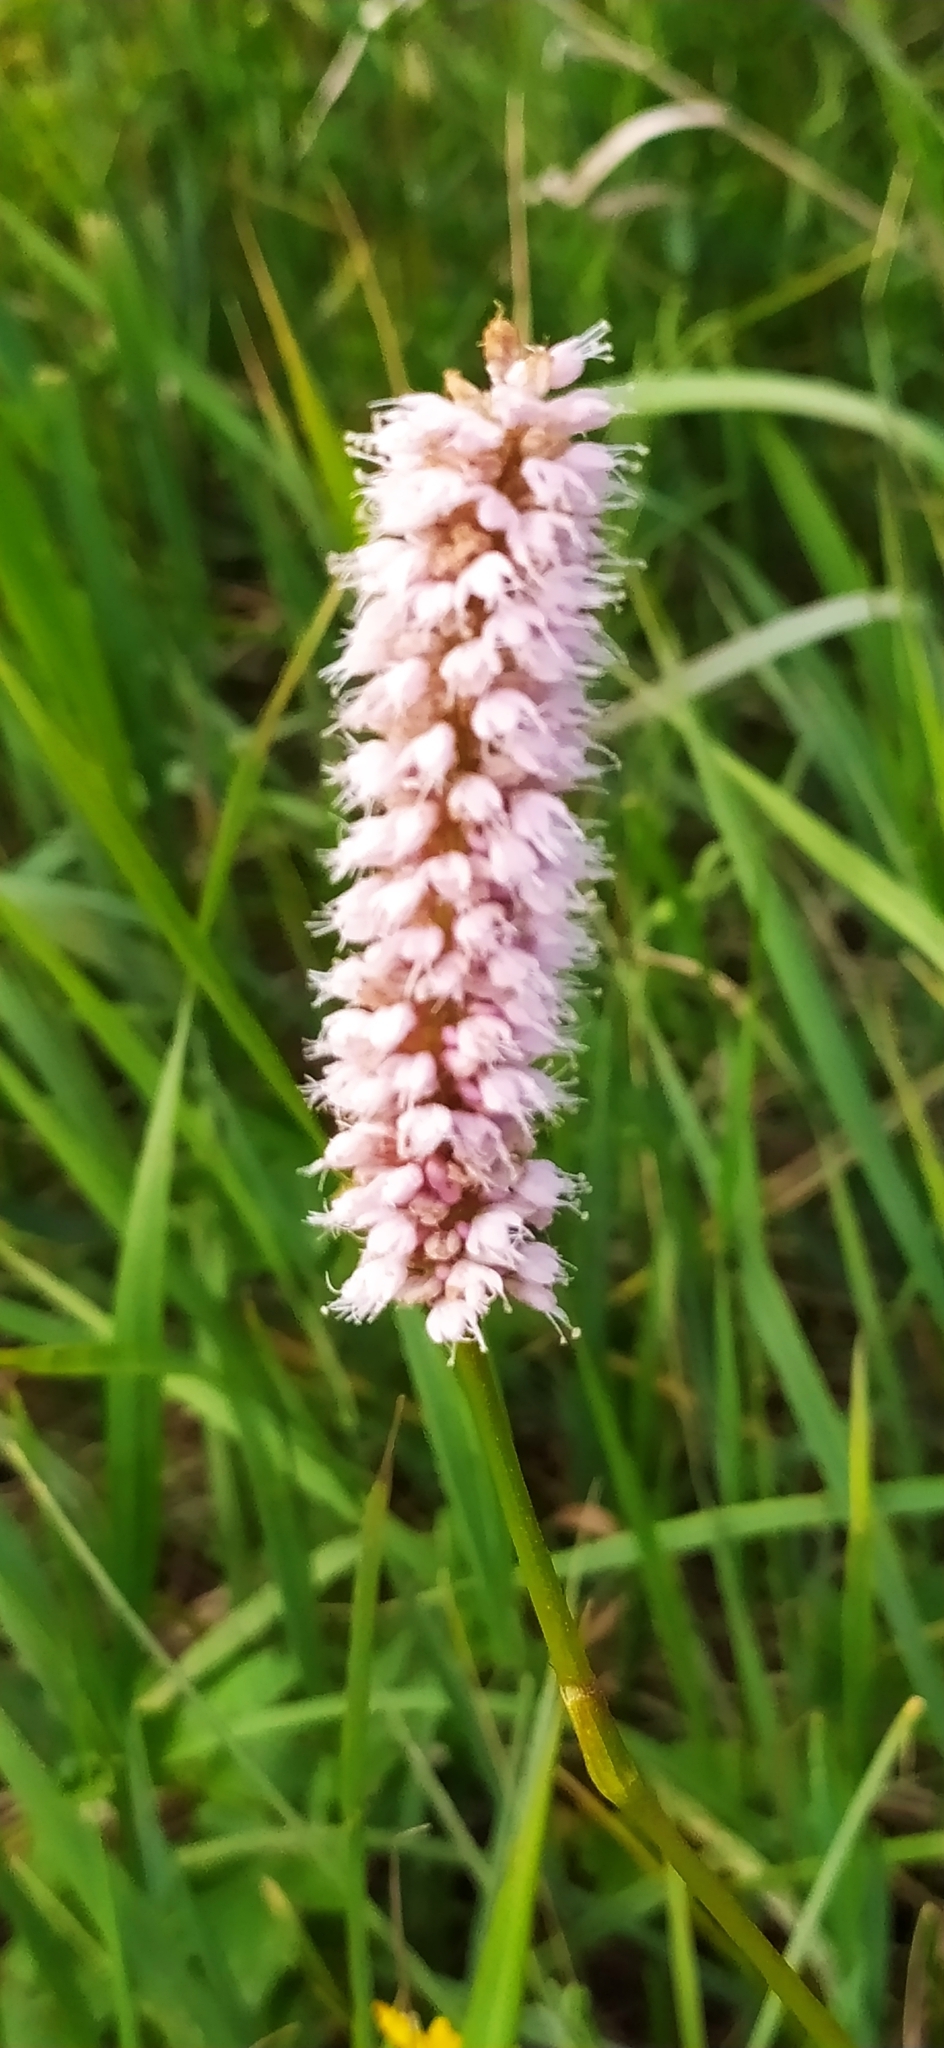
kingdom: Plantae
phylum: Tracheophyta
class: Magnoliopsida
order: Caryophyllales
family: Polygonaceae
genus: Bistorta
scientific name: Bistorta officinalis
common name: Common bistort
